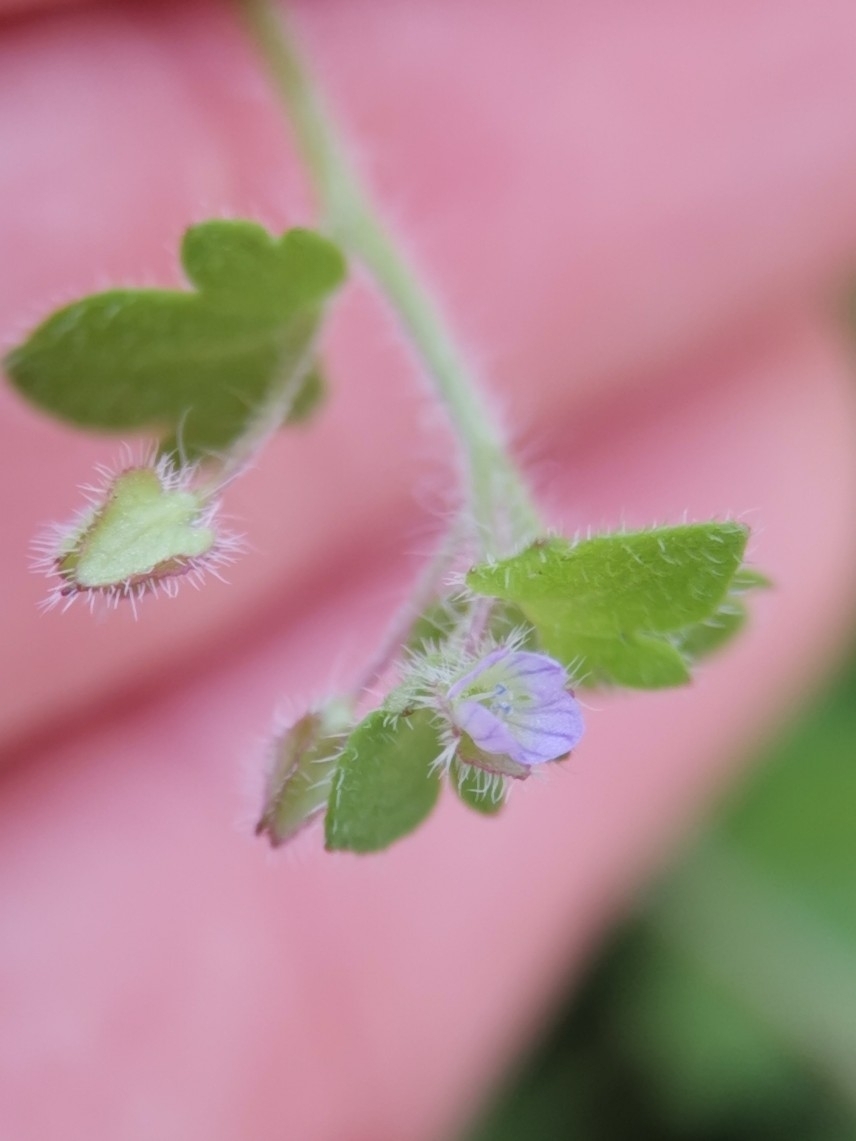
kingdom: Plantae
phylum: Tracheophyta
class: Magnoliopsida
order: Lamiales
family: Plantaginaceae
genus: Veronica
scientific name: Veronica sublobata
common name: False ivy-leaved speedwell
